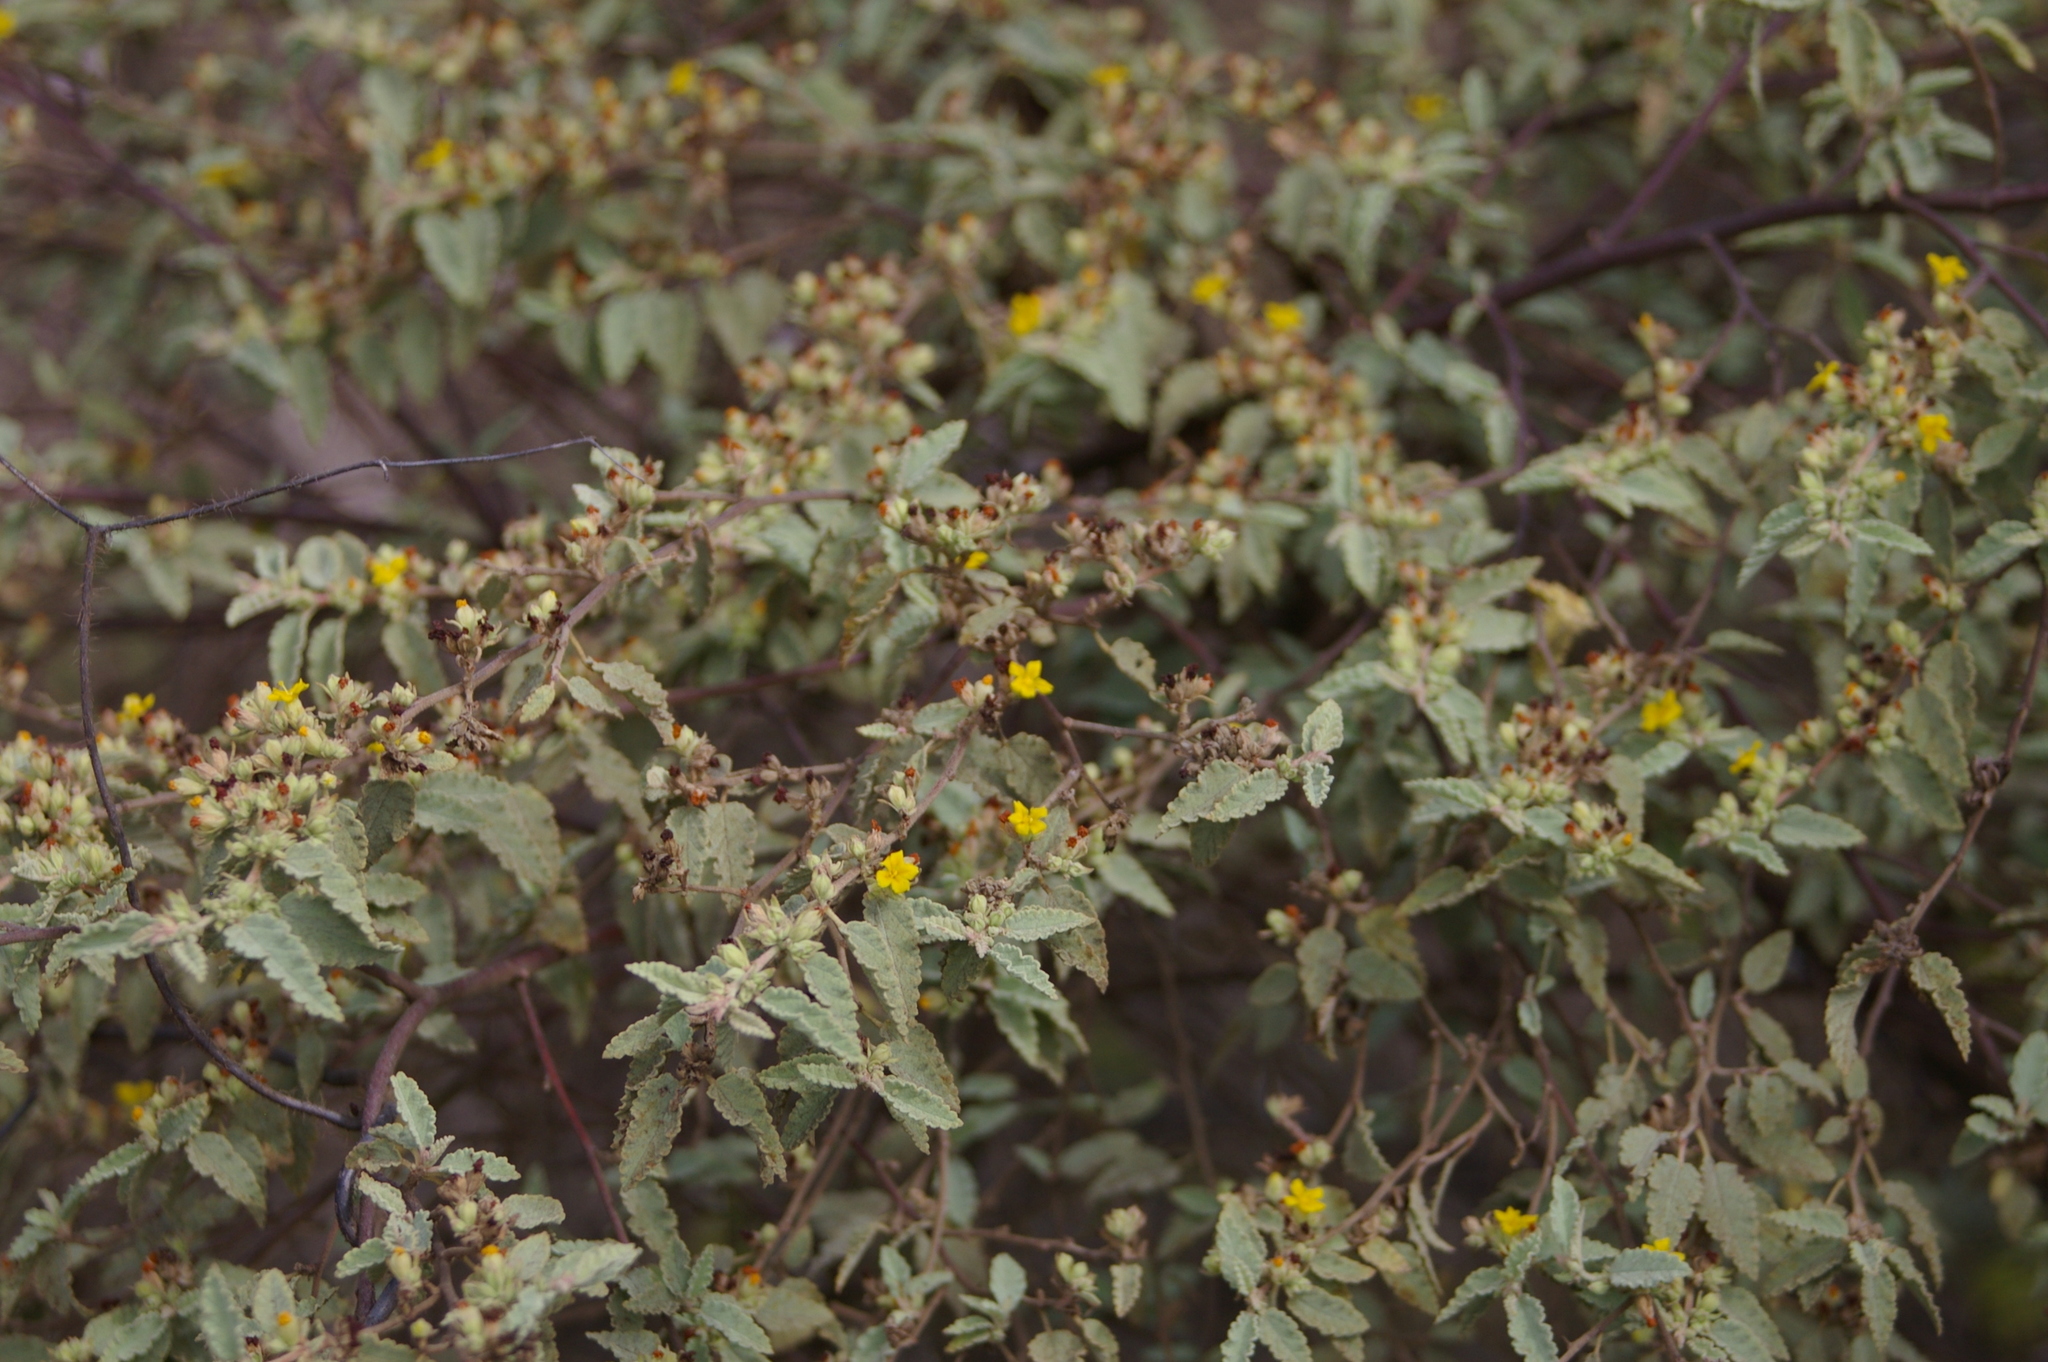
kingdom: Plantae
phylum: Tracheophyta
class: Magnoliopsida
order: Malvales
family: Malvaceae
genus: Waltheria
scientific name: Waltheria ovata
